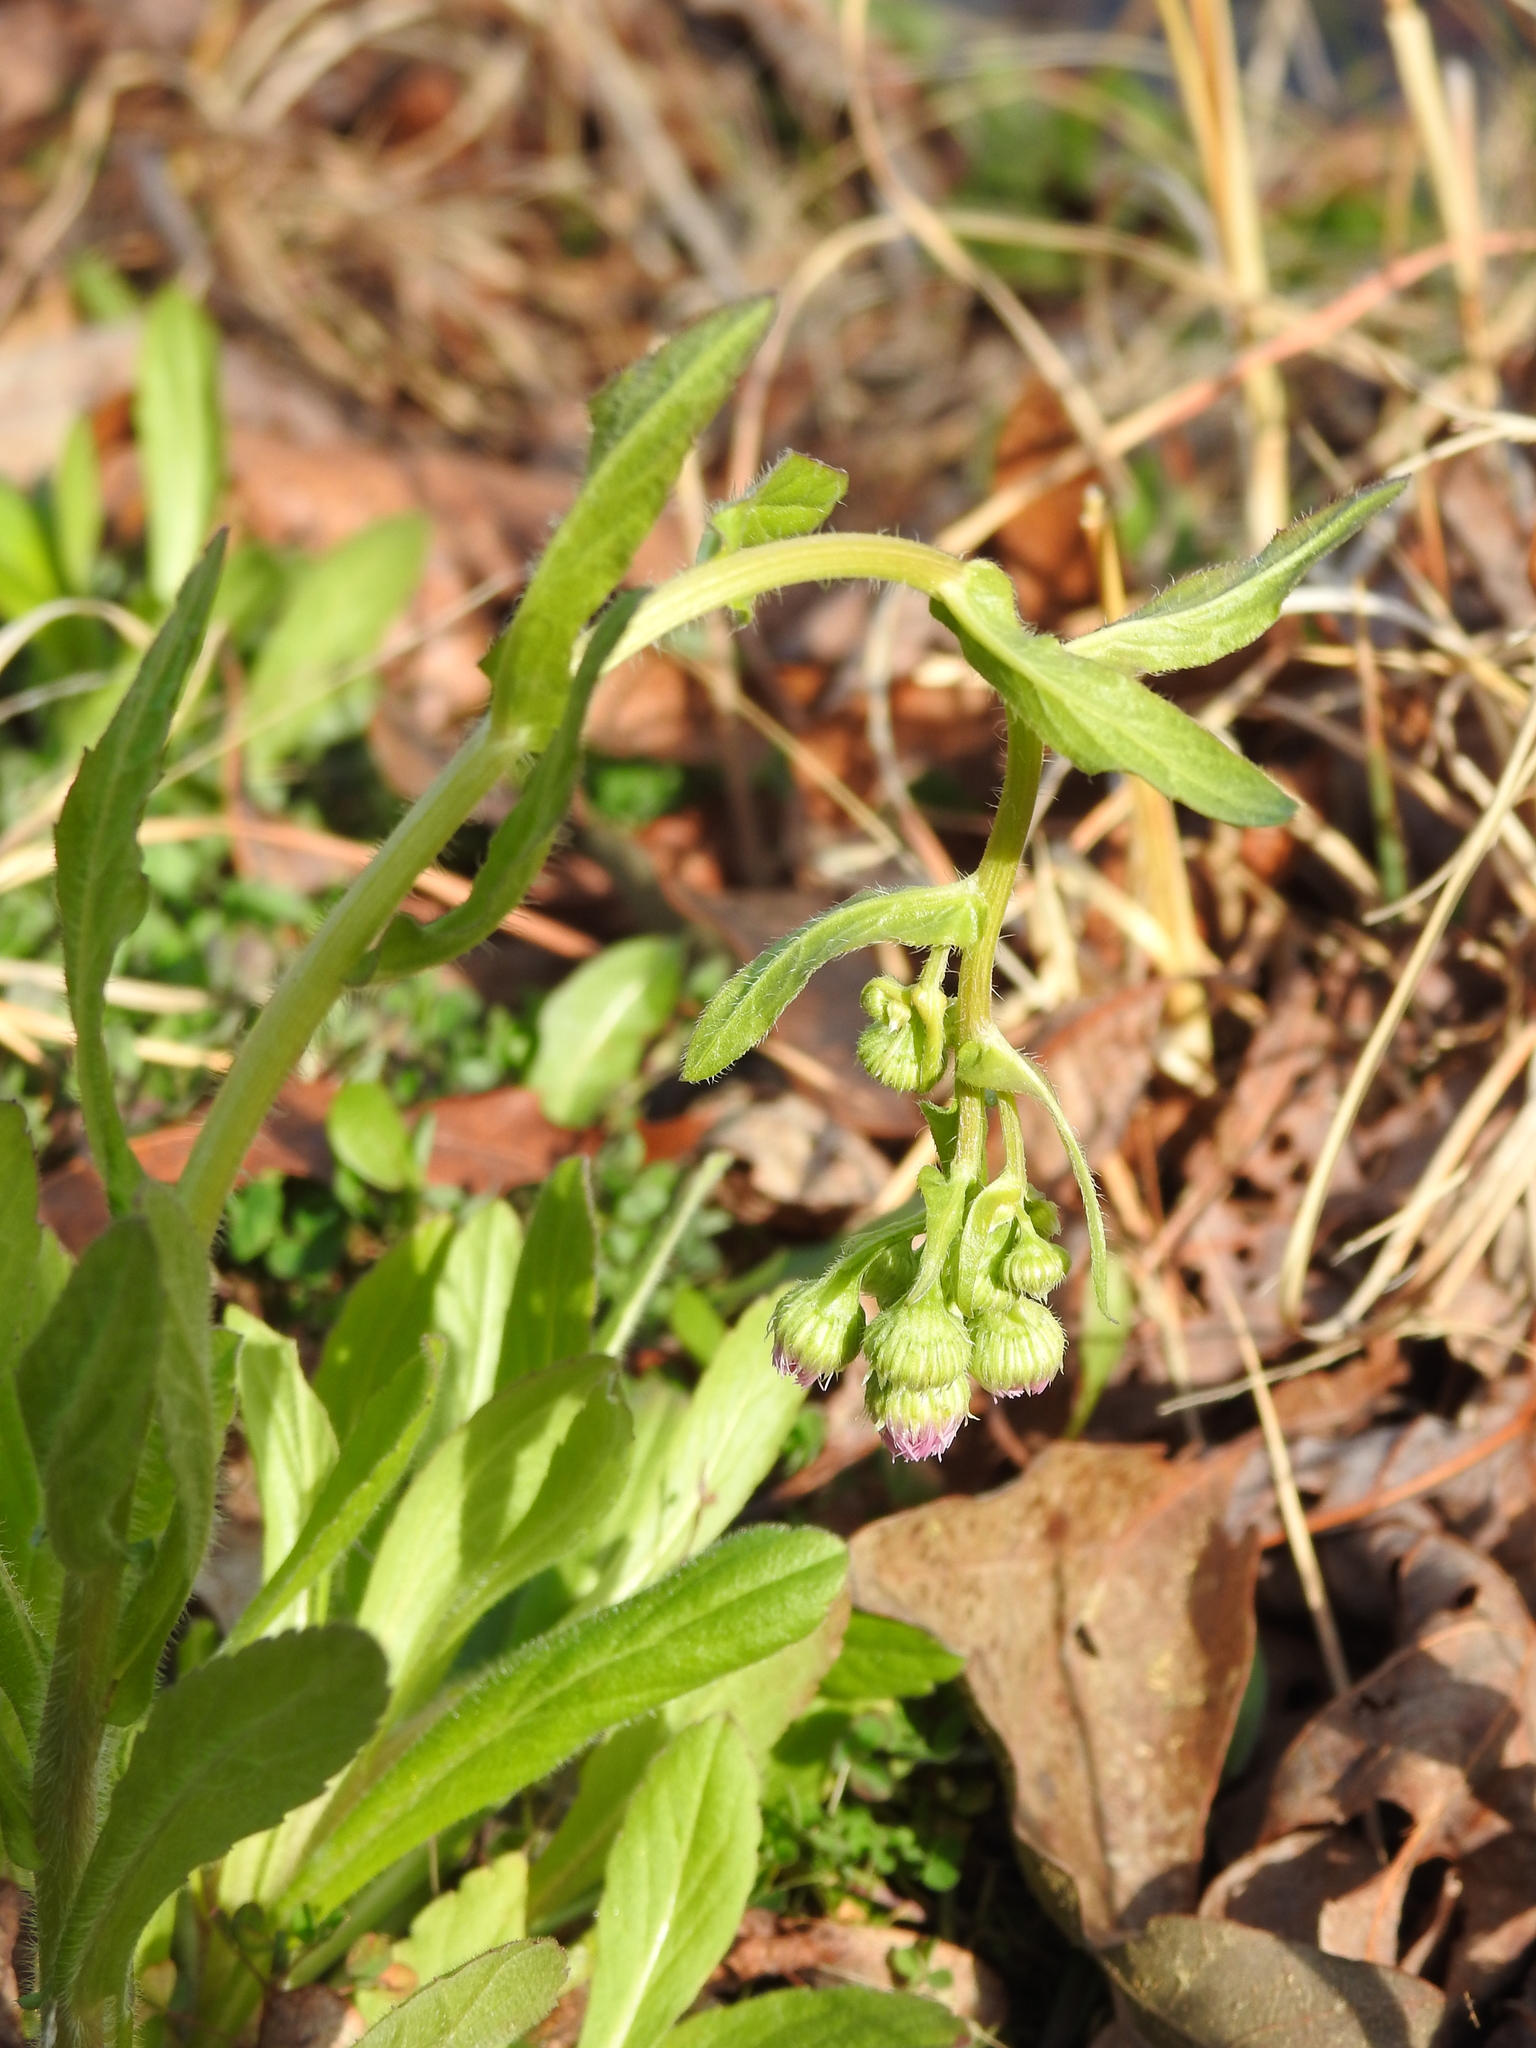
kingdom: Plantae
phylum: Tracheophyta
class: Magnoliopsida
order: Asterales
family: Asteraceae
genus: Erigeron
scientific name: Erigeron philadelphicus
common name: Robin's-plantain
